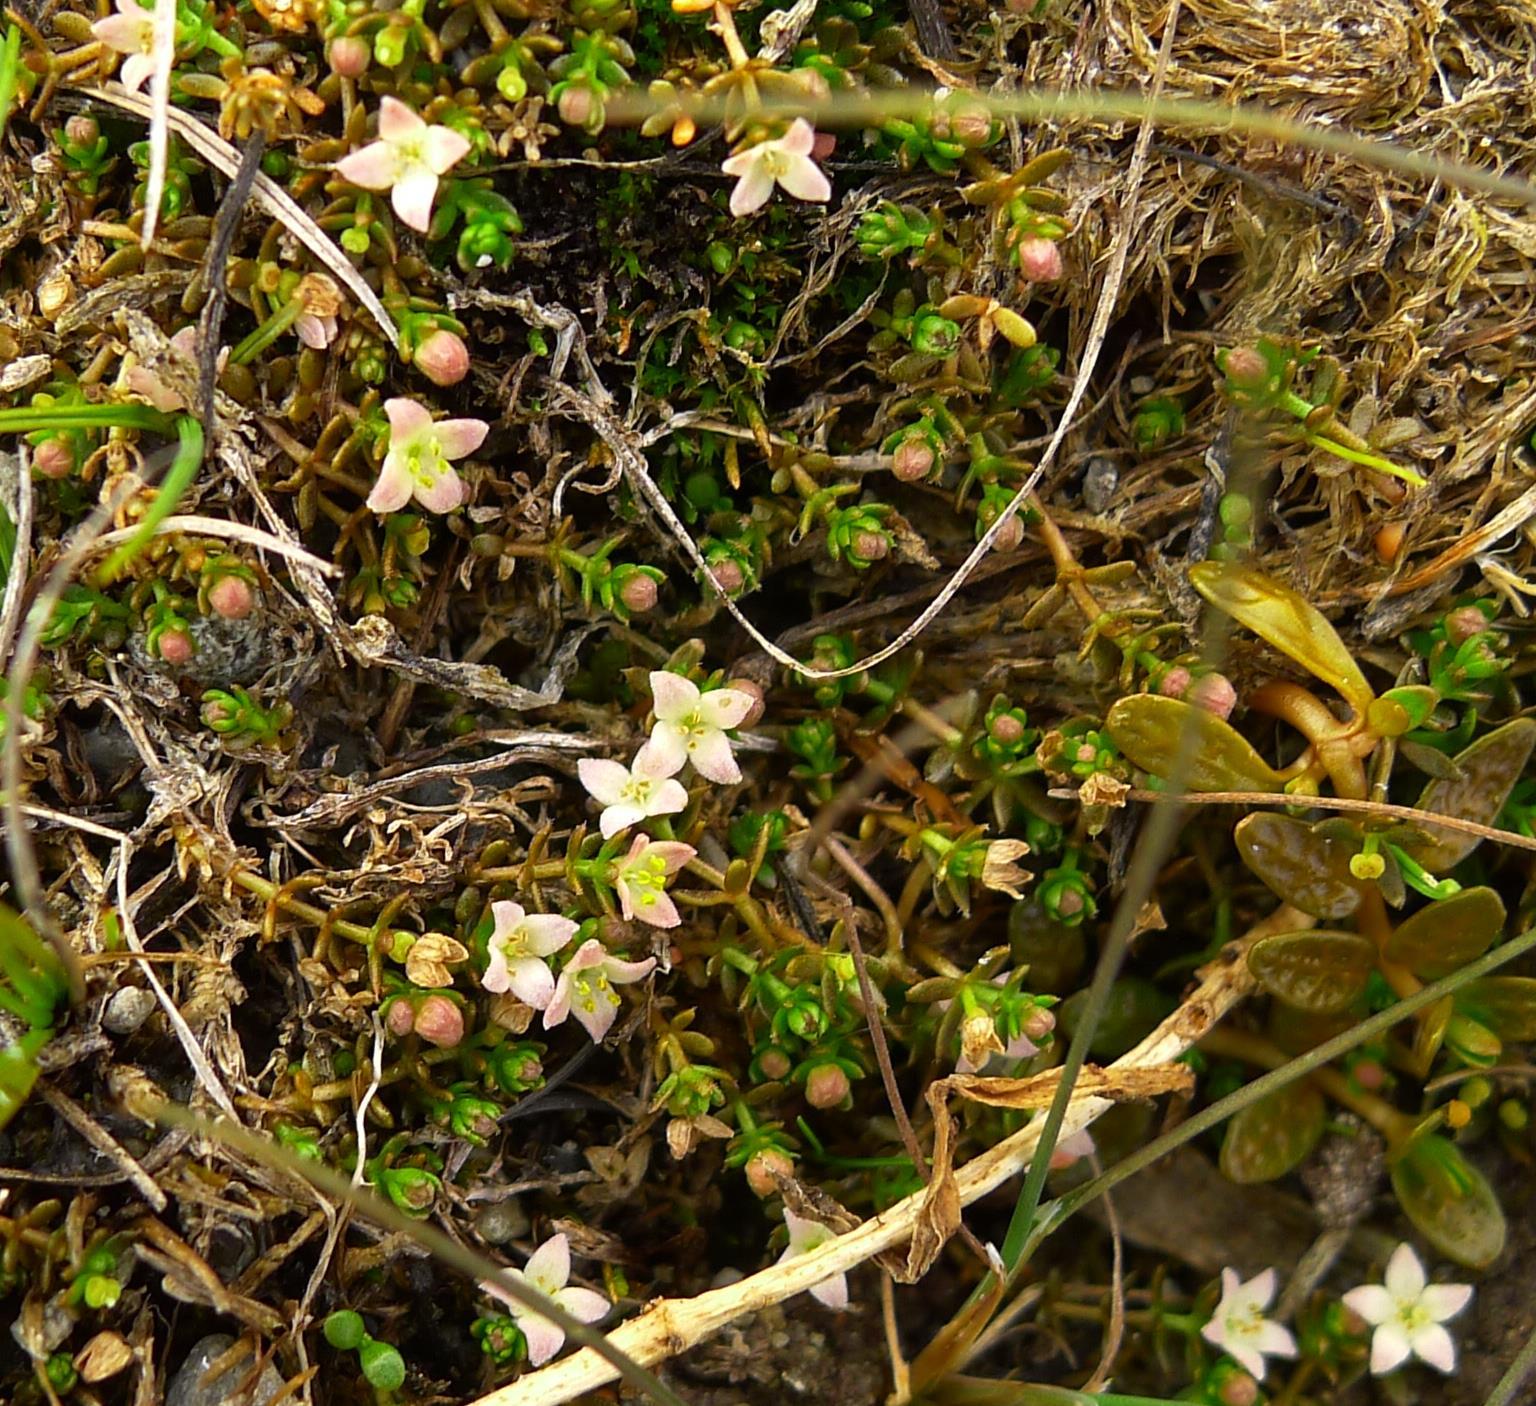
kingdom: Plantae
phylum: Tracheophyta
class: Magnoliopsida
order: Gentianales
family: Rubiaceae
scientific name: Rubiaceae
